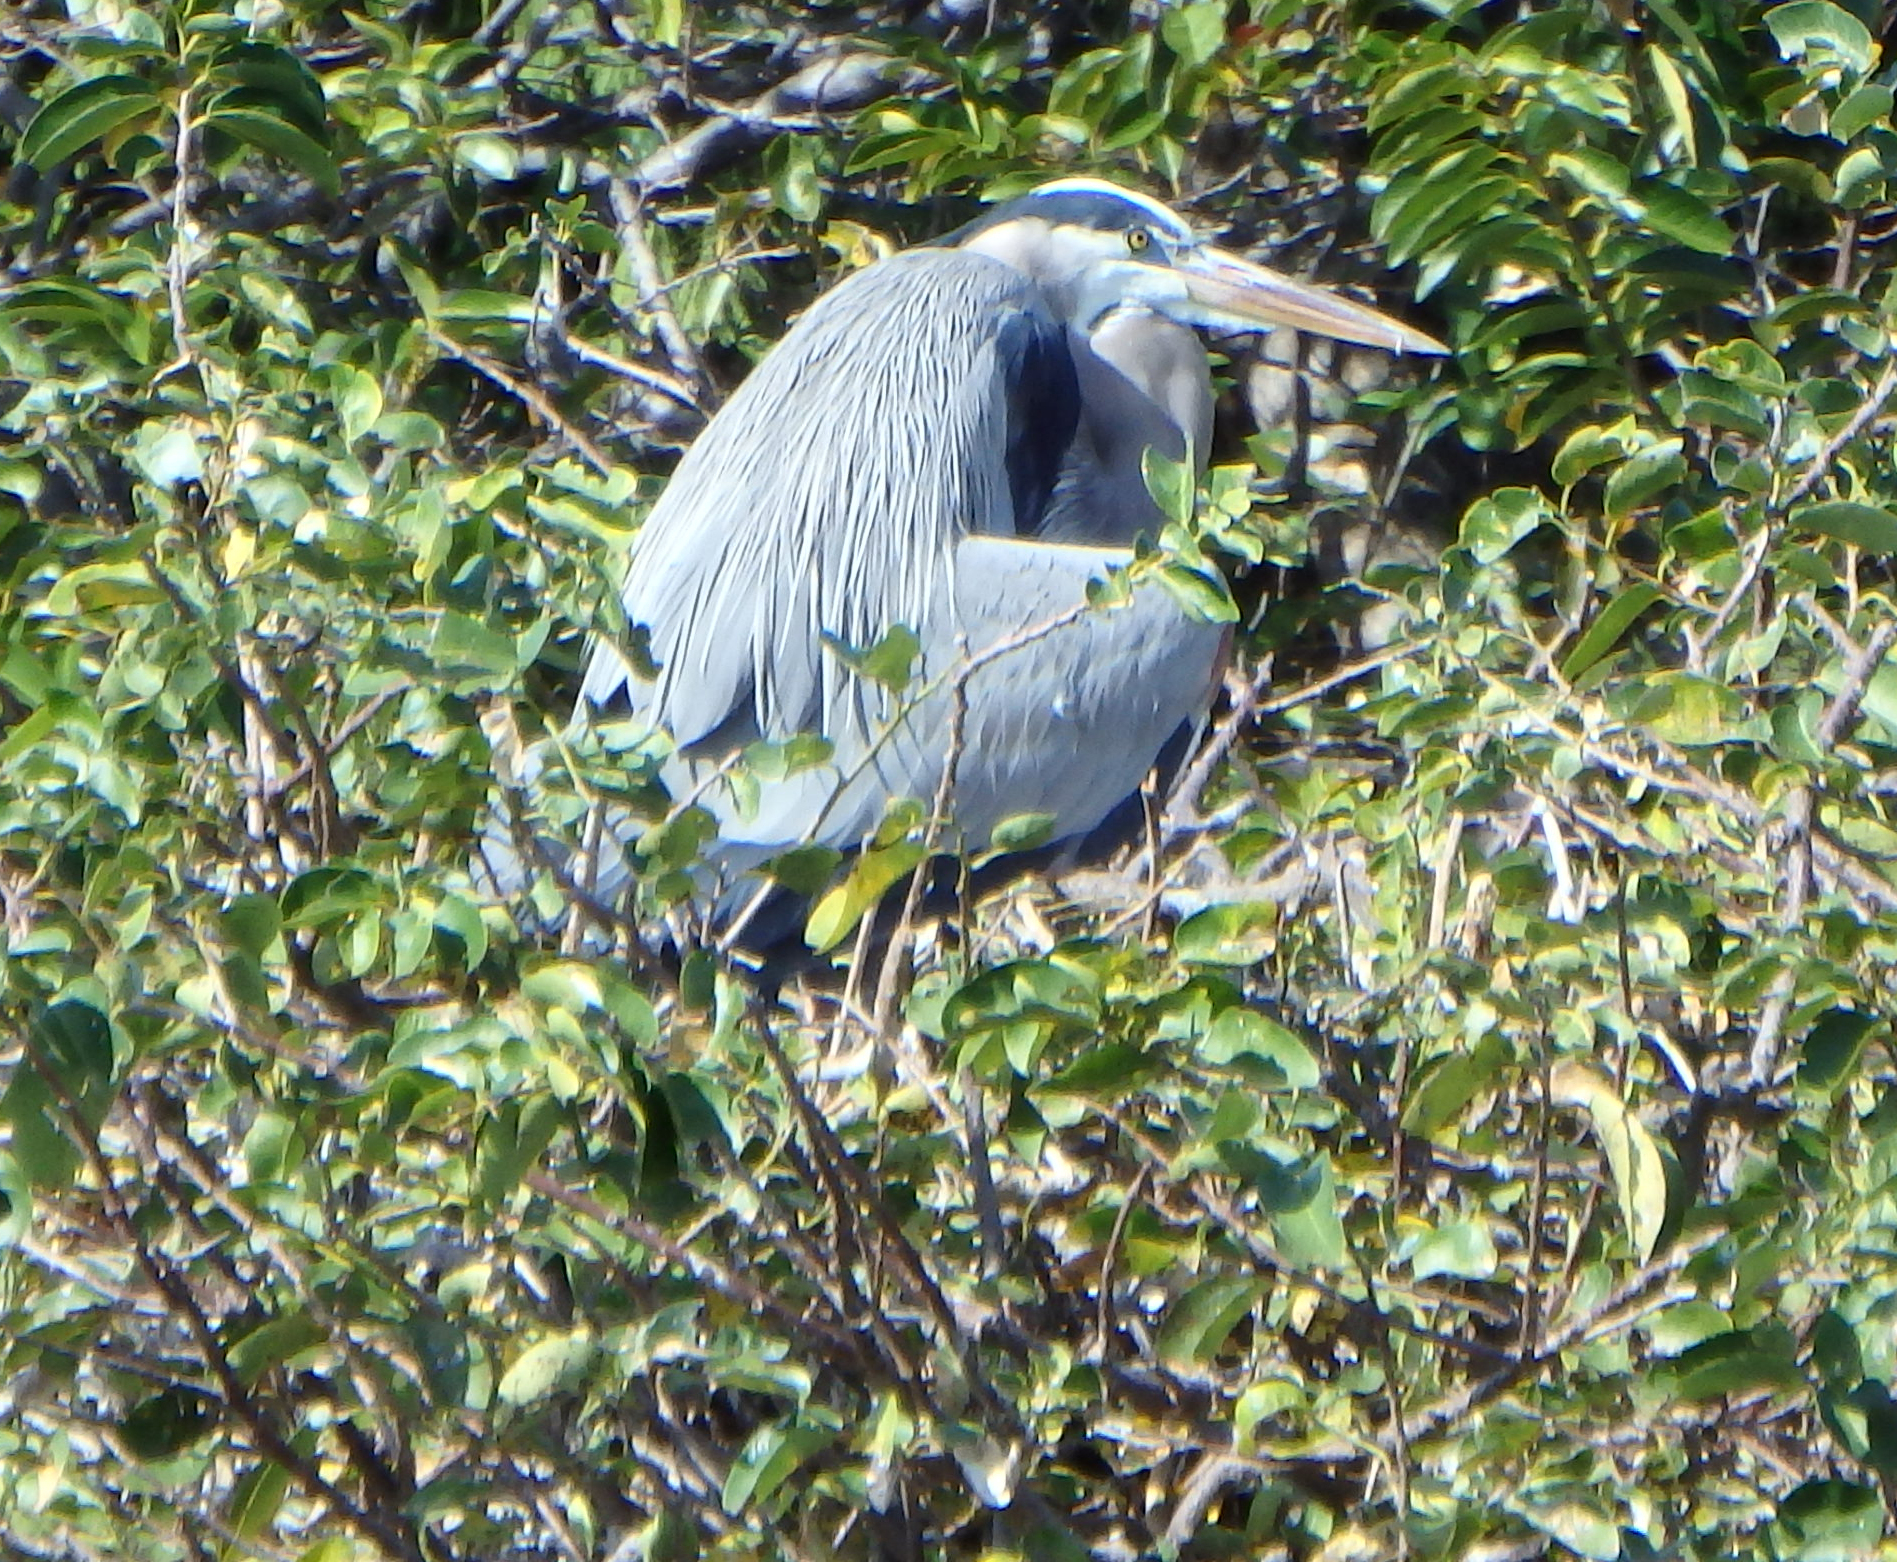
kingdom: Animalia
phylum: Chordata
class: Aves
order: Pelecaniformes
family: Ardeidae
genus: Ardea
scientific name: Ardea herodias
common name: Great blue heron
